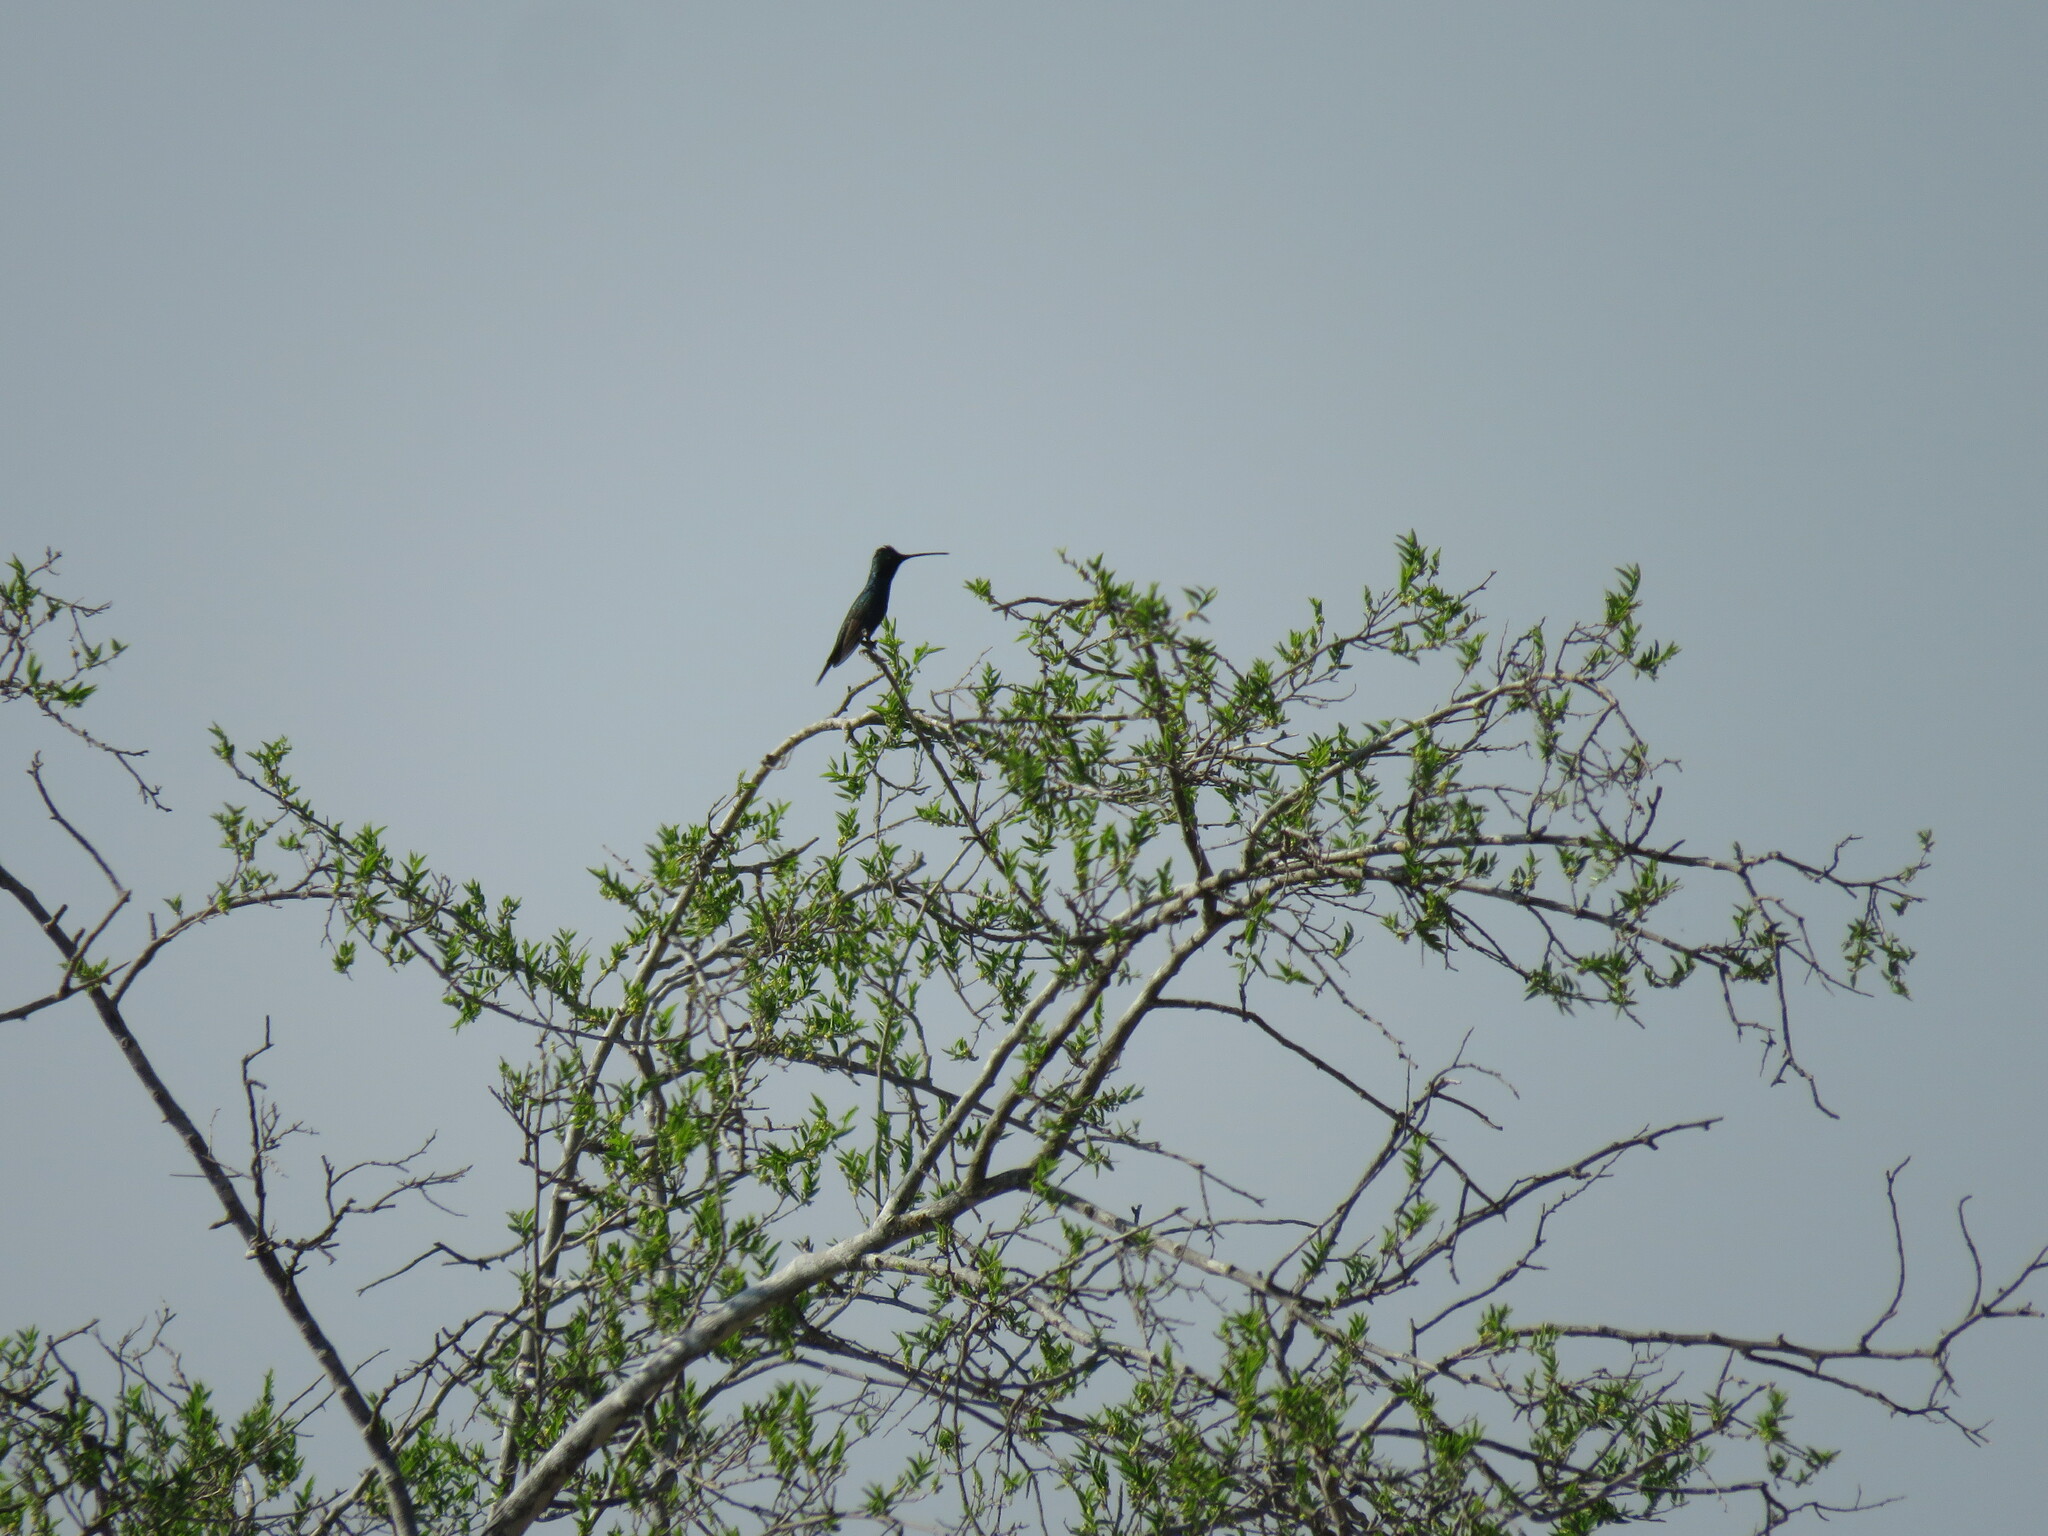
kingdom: Animalia
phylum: Chordata
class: Aves
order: Apodiformes
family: Trochilidae
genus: Heliomaster
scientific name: Heliomaster furcifer
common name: Blue-tufted starthroat
